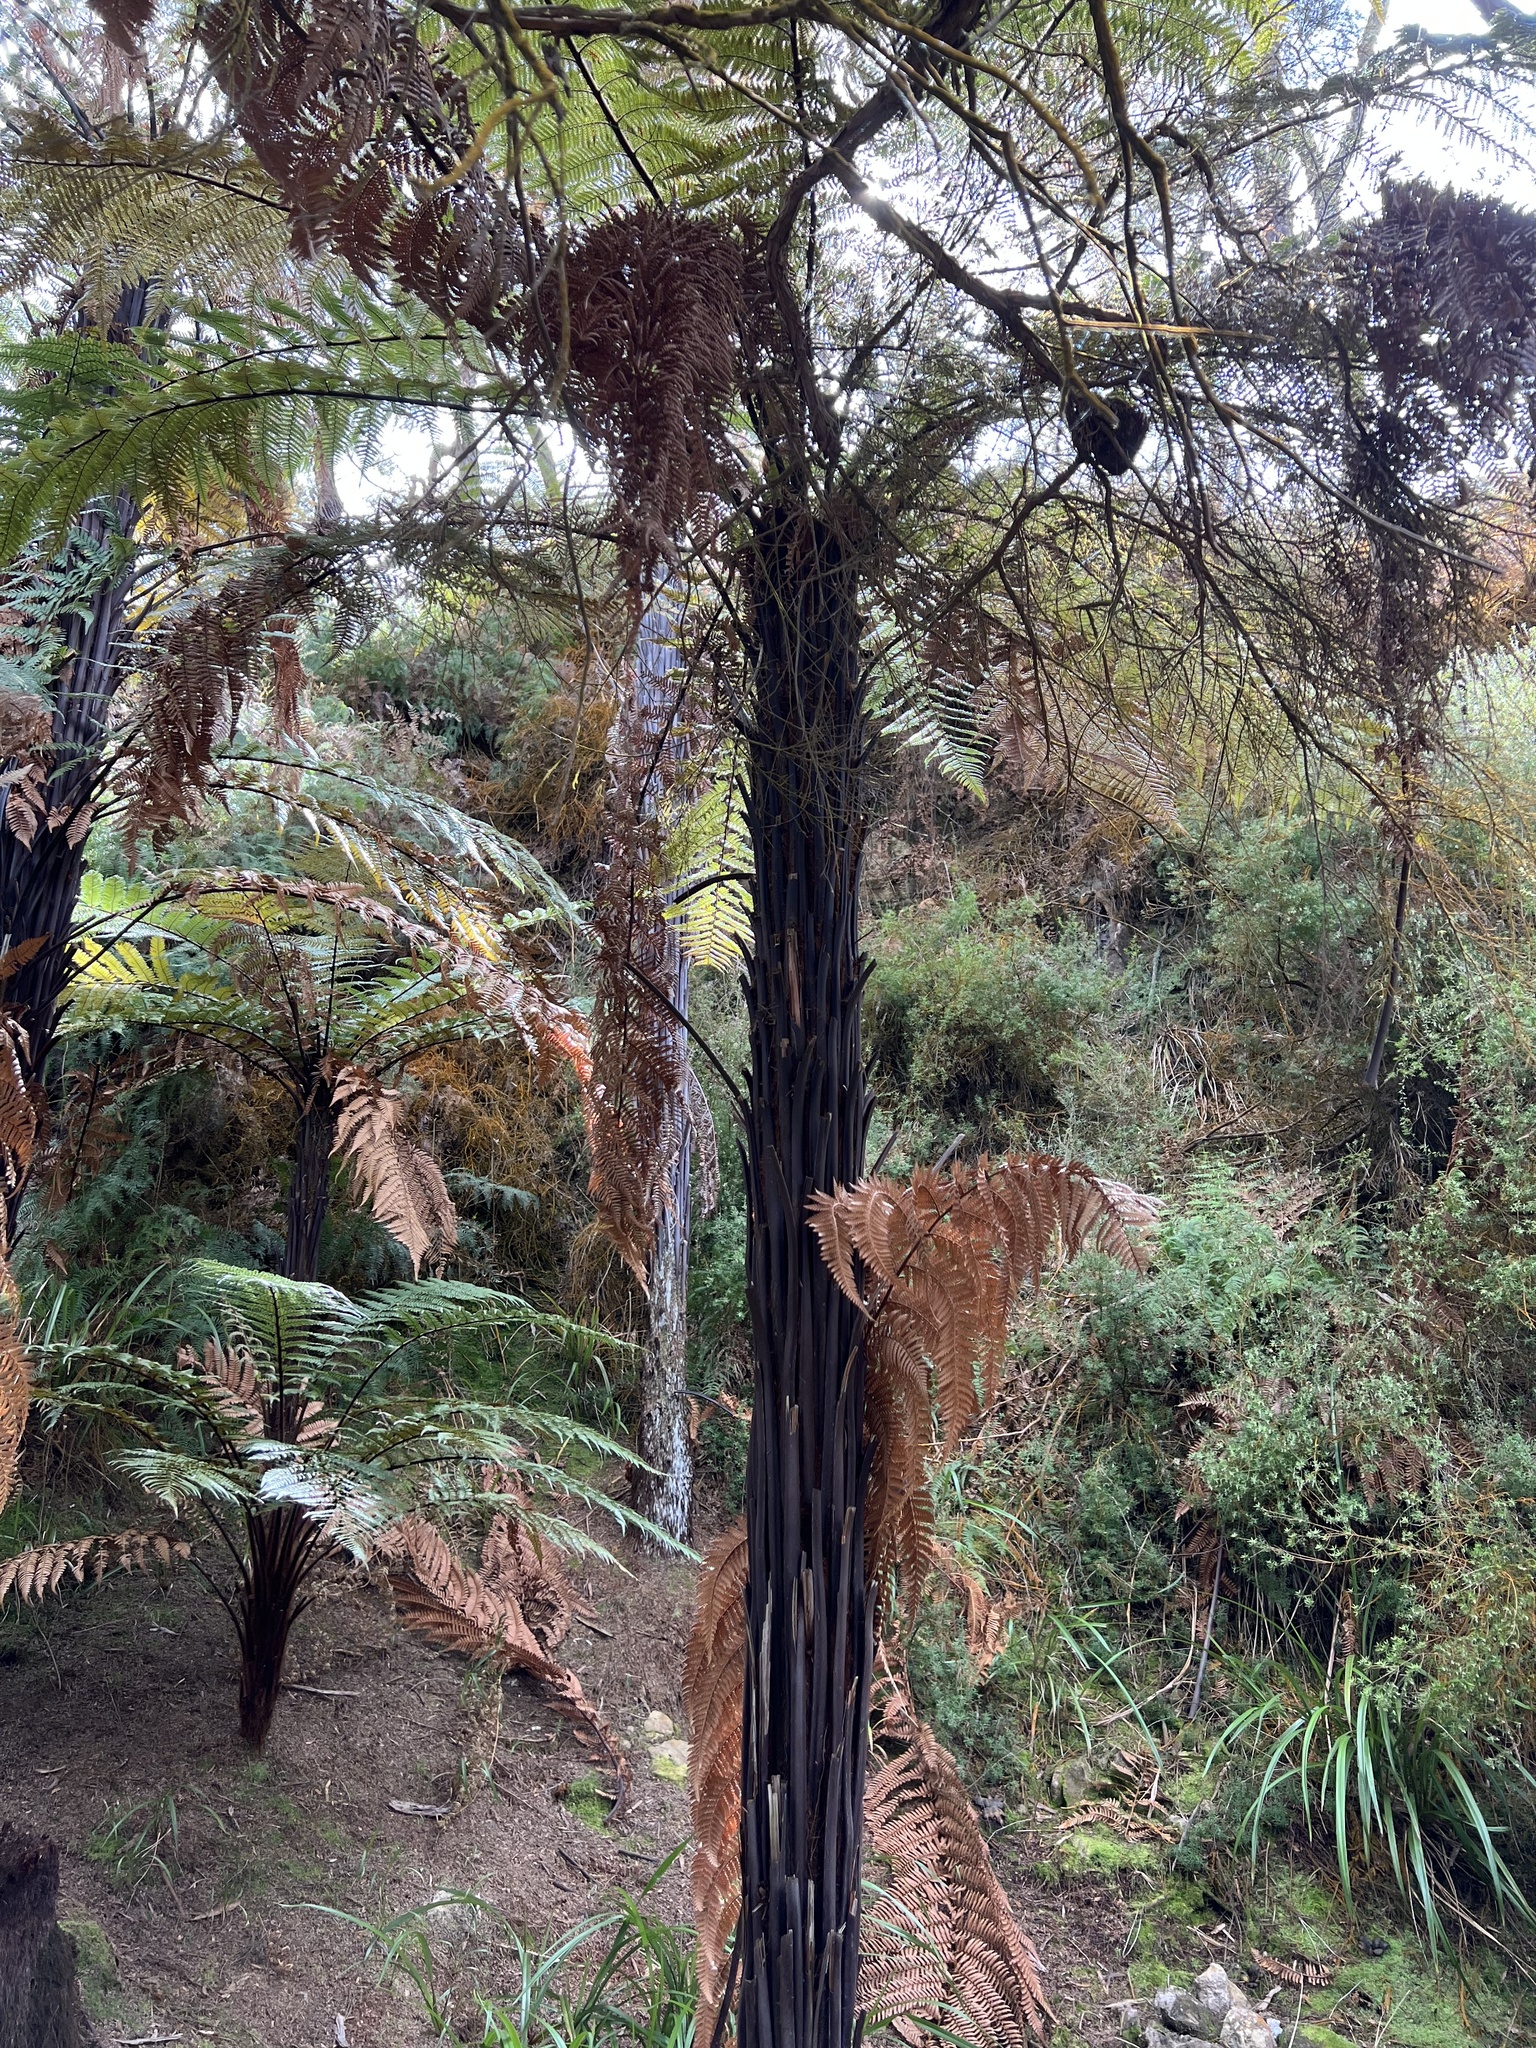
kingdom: Plantae
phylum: Tracheophyta
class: Polypodiopsida
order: Cyatheales
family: Dicksoniaceae
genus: Dicksonia
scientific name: Dicksonia squarrosa
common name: Hard treefern
